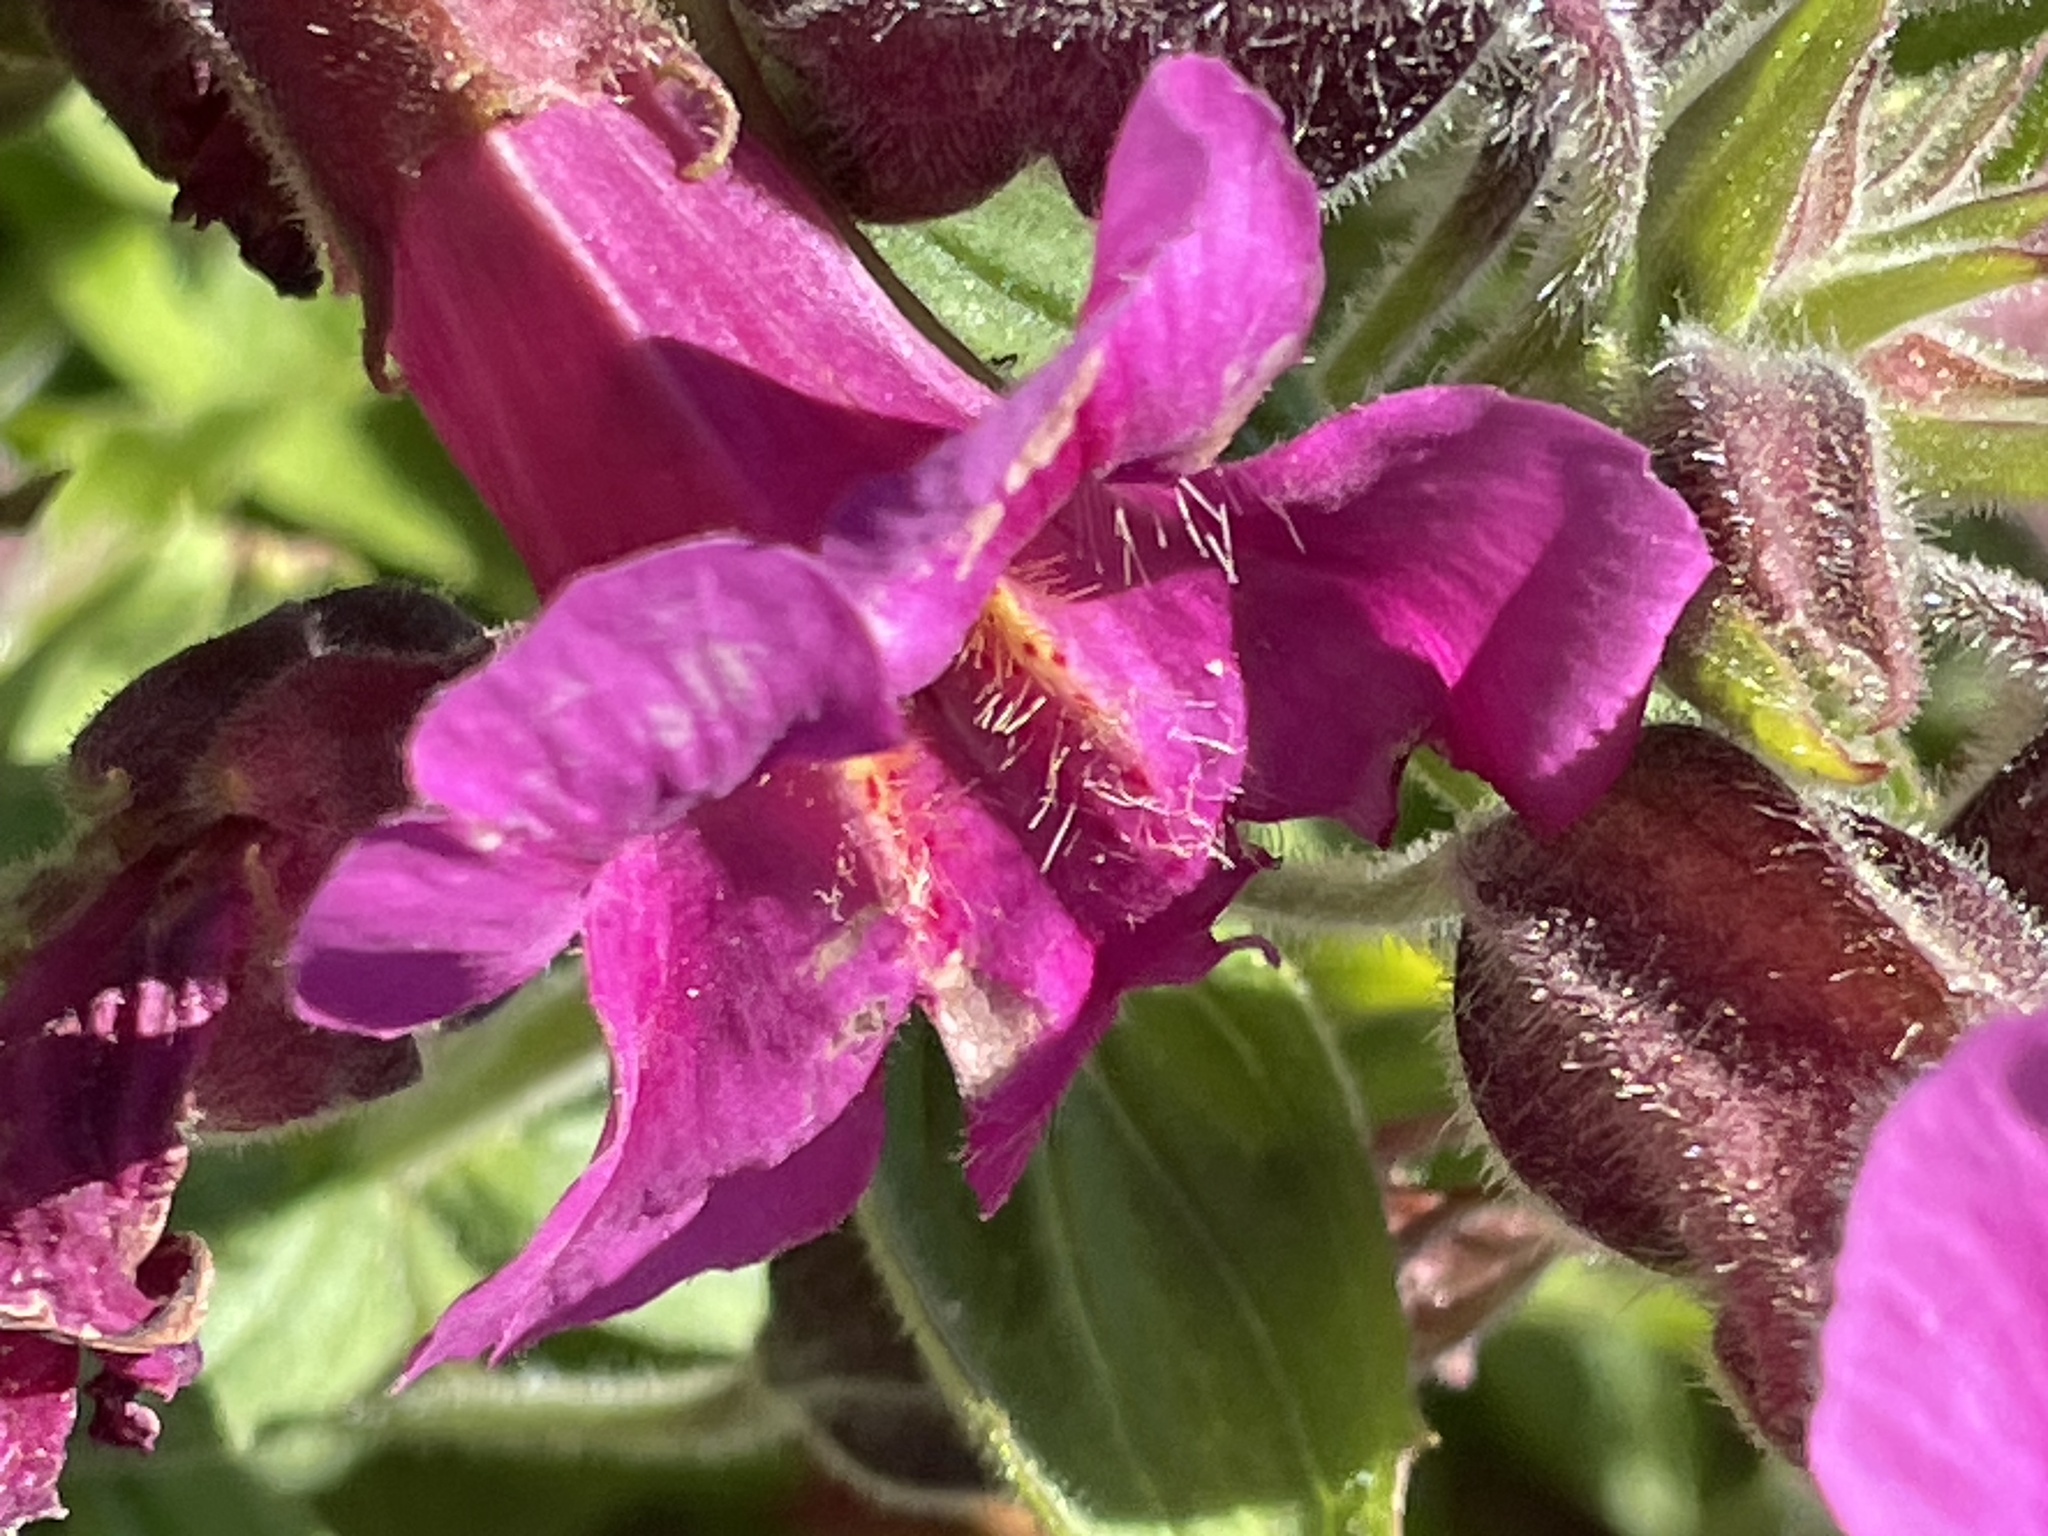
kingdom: Plantae
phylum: Tracheophyta
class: Magnoliopsida
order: Lamiales
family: Phrymaceae
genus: Erythranthe
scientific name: Erythranthe lewisii
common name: Lewis's monkey-flower
